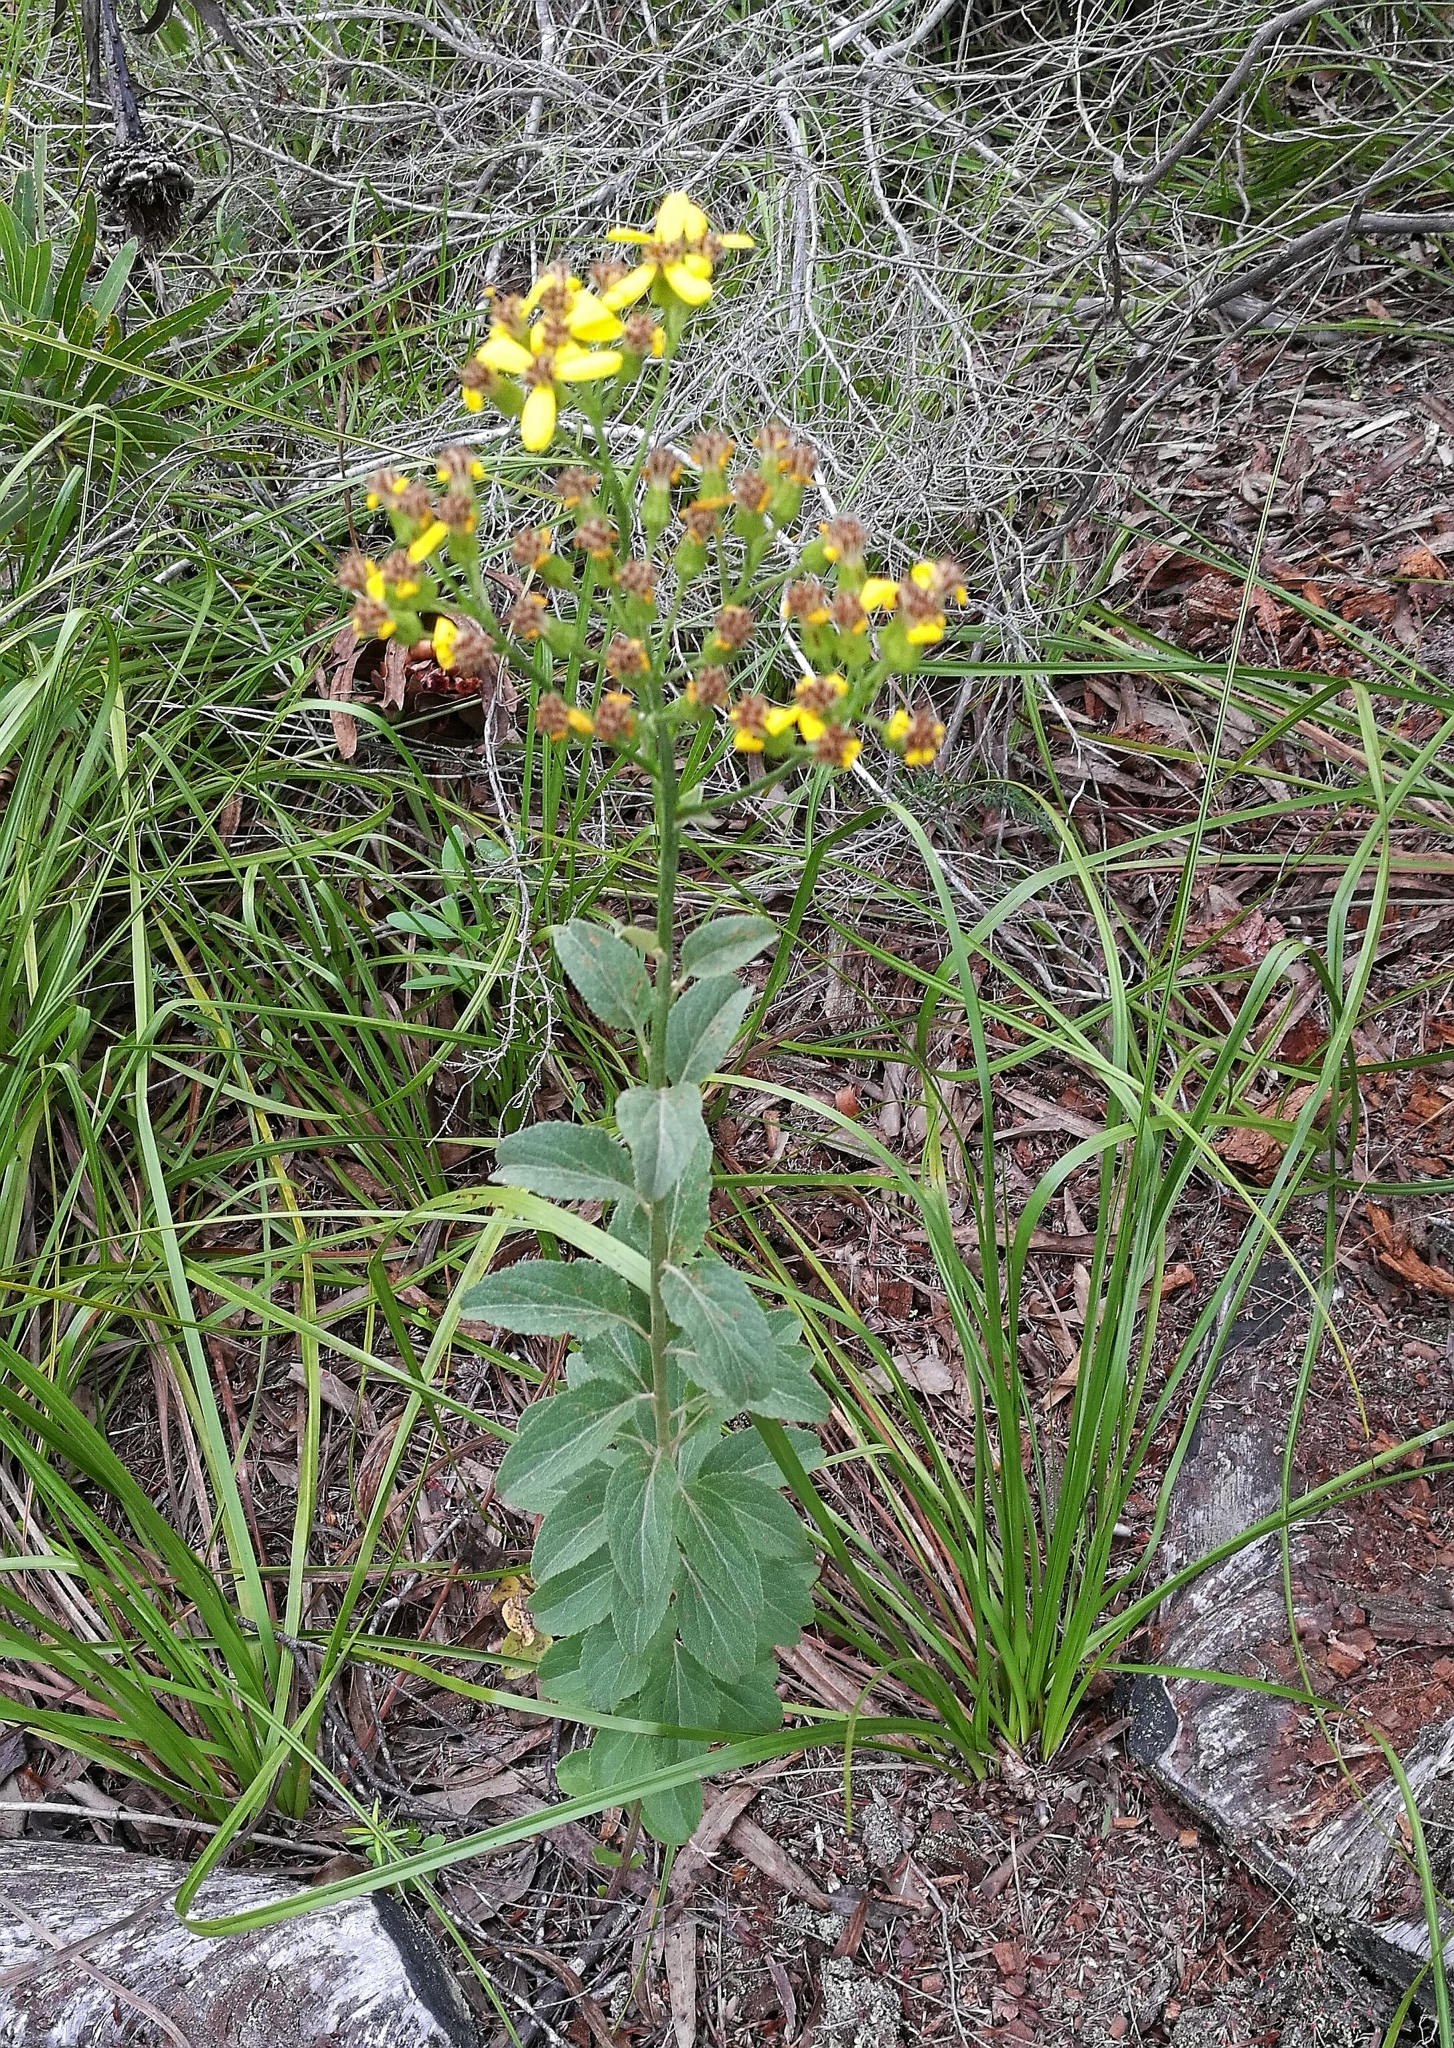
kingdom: Plantae
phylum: Tracheophyta
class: Magnoliopsida
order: Asterales
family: Asteraceae
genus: Senecio
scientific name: Senecio crenatus
